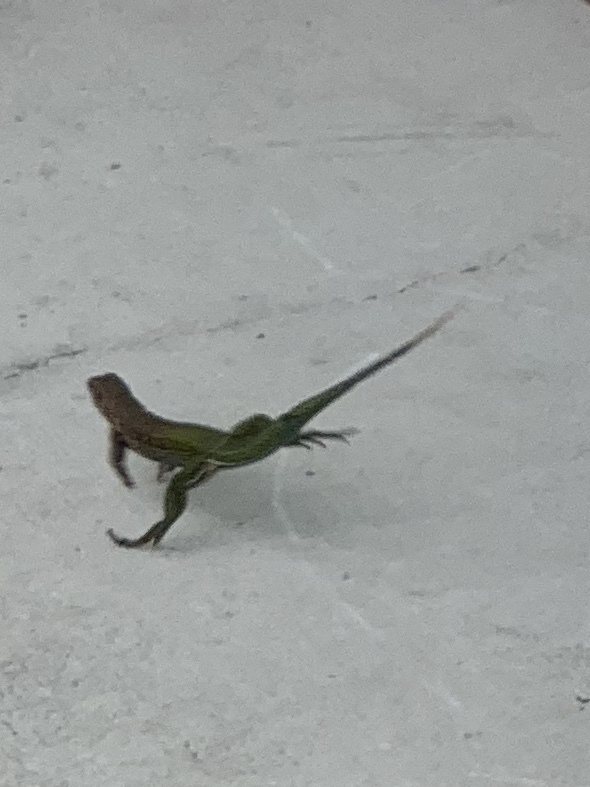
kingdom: Animalia
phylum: Chordata
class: Squamata
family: Teiidae
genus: Ameiva
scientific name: Ameiva ameiva
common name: Giant ameiva
